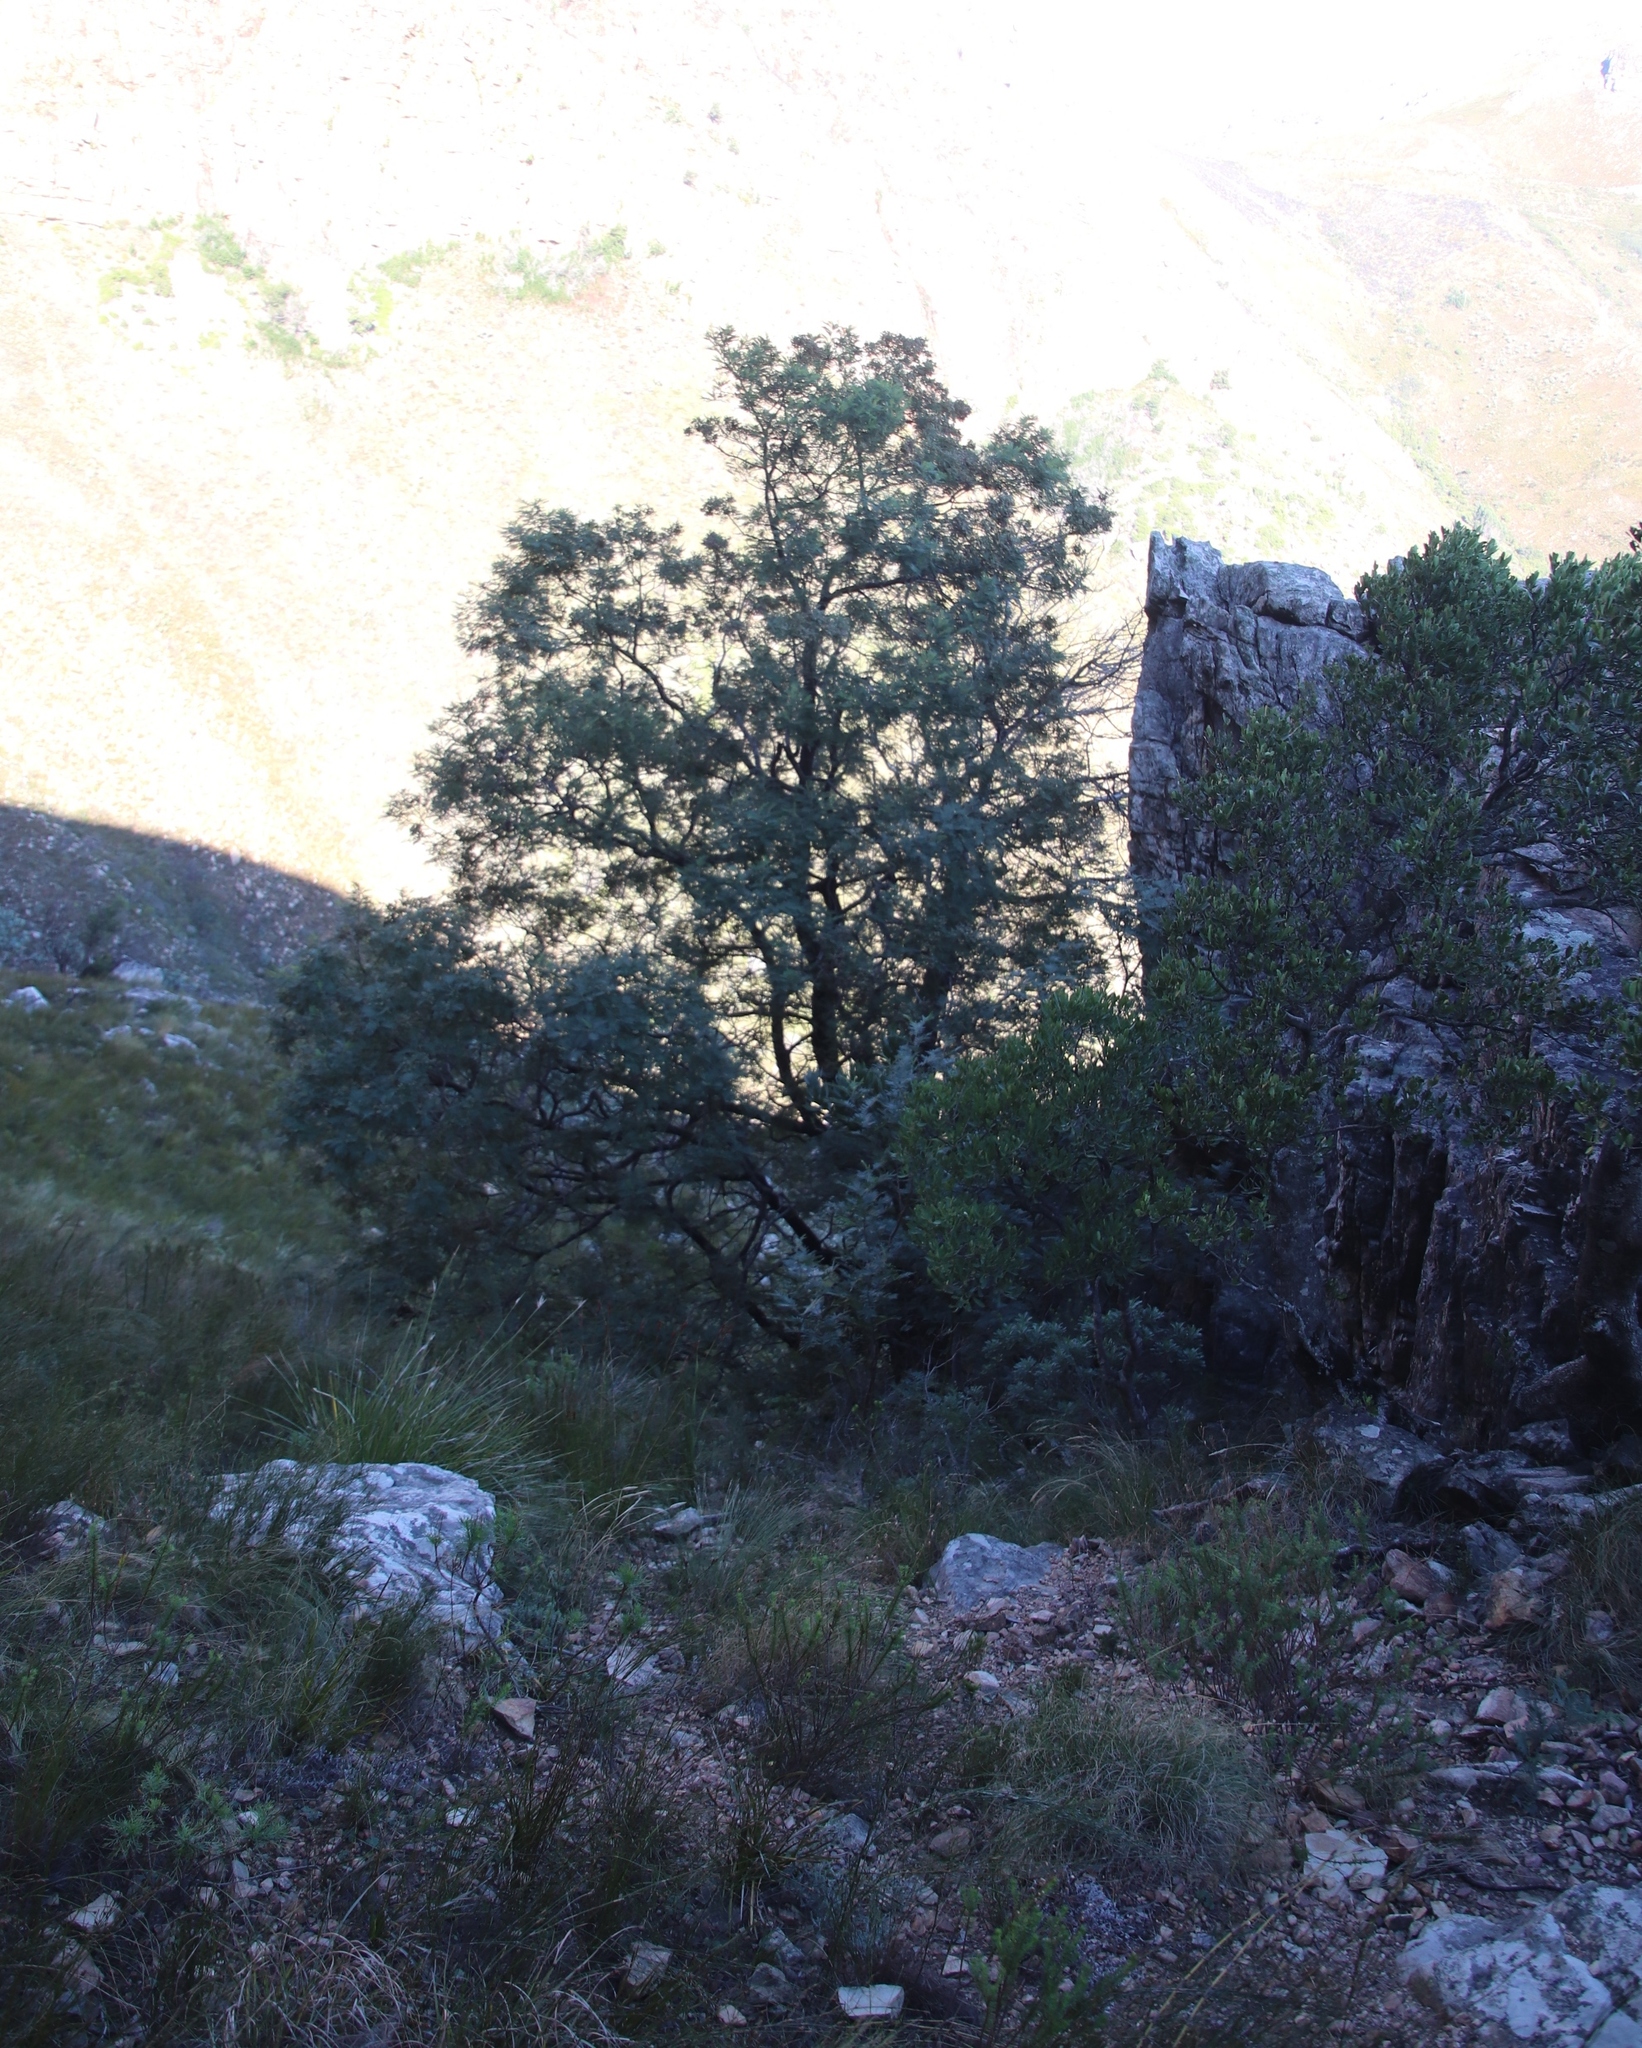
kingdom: Plantae
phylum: Tracheophyta
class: Magnoliopsida
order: Fabales
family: Fabaceae
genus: Acacia
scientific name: Acacia mearnsii
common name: Black wattle
